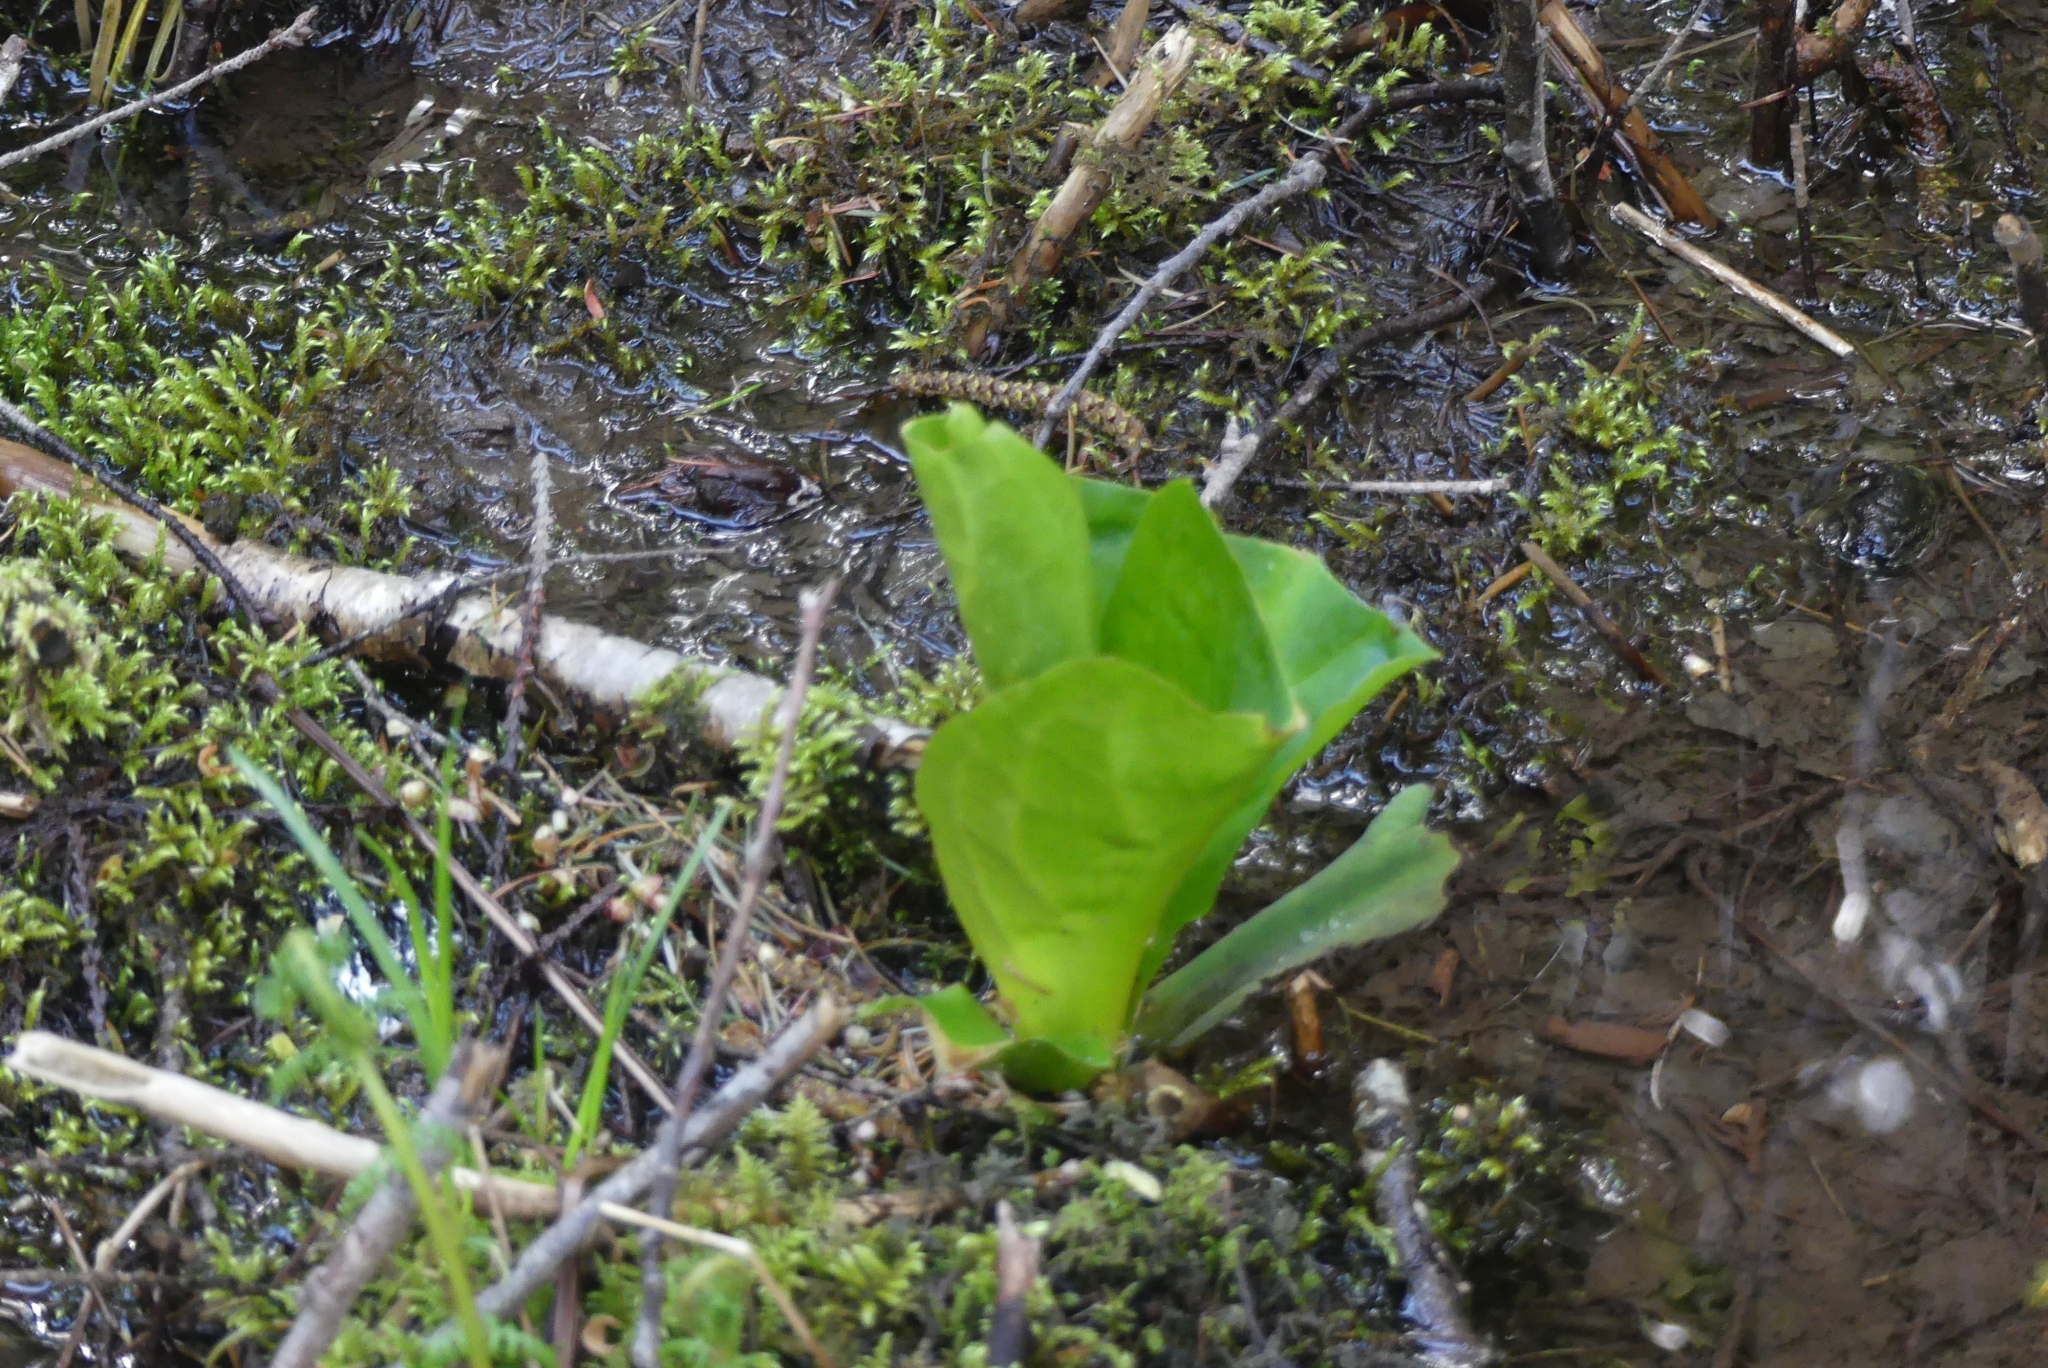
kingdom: Plantae
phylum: Tracheophyta
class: Liliopsida
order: Alismatales
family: Araceae
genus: Lysichiton
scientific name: Lysichiton americanus
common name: American skunk cabbage
